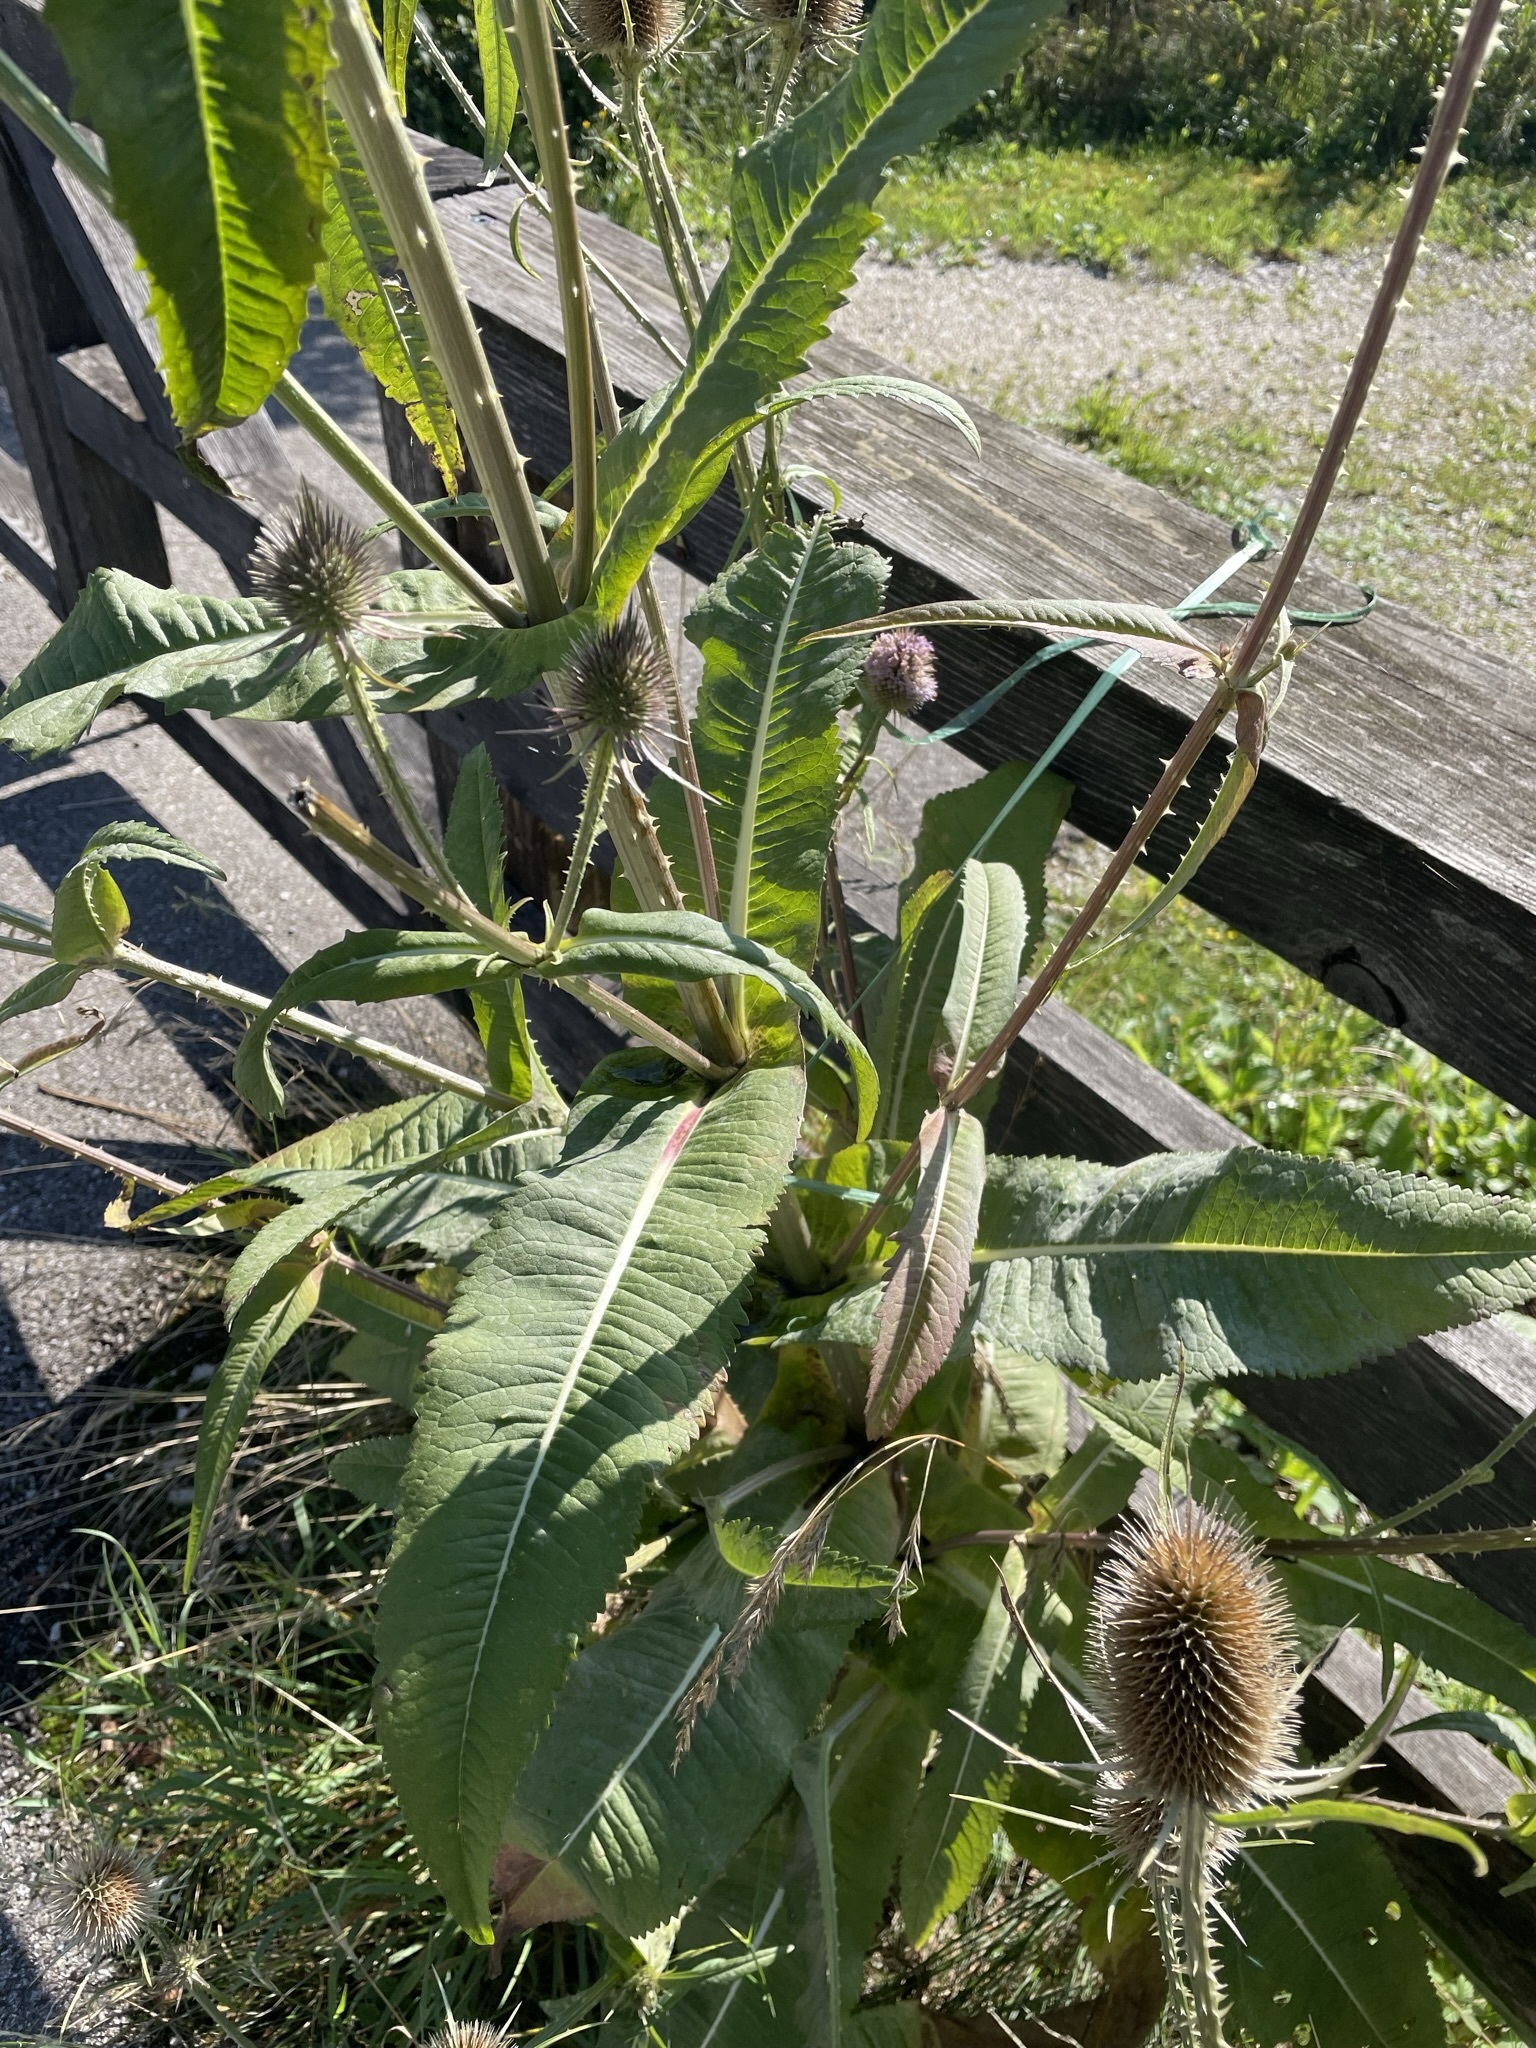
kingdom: Plantae
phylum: Tracheophyta
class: Magnoliopsida
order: Dipsacales
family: Caprifoliaceae
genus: Dipsacus
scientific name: Dipsacus fullonum
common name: Teasel
